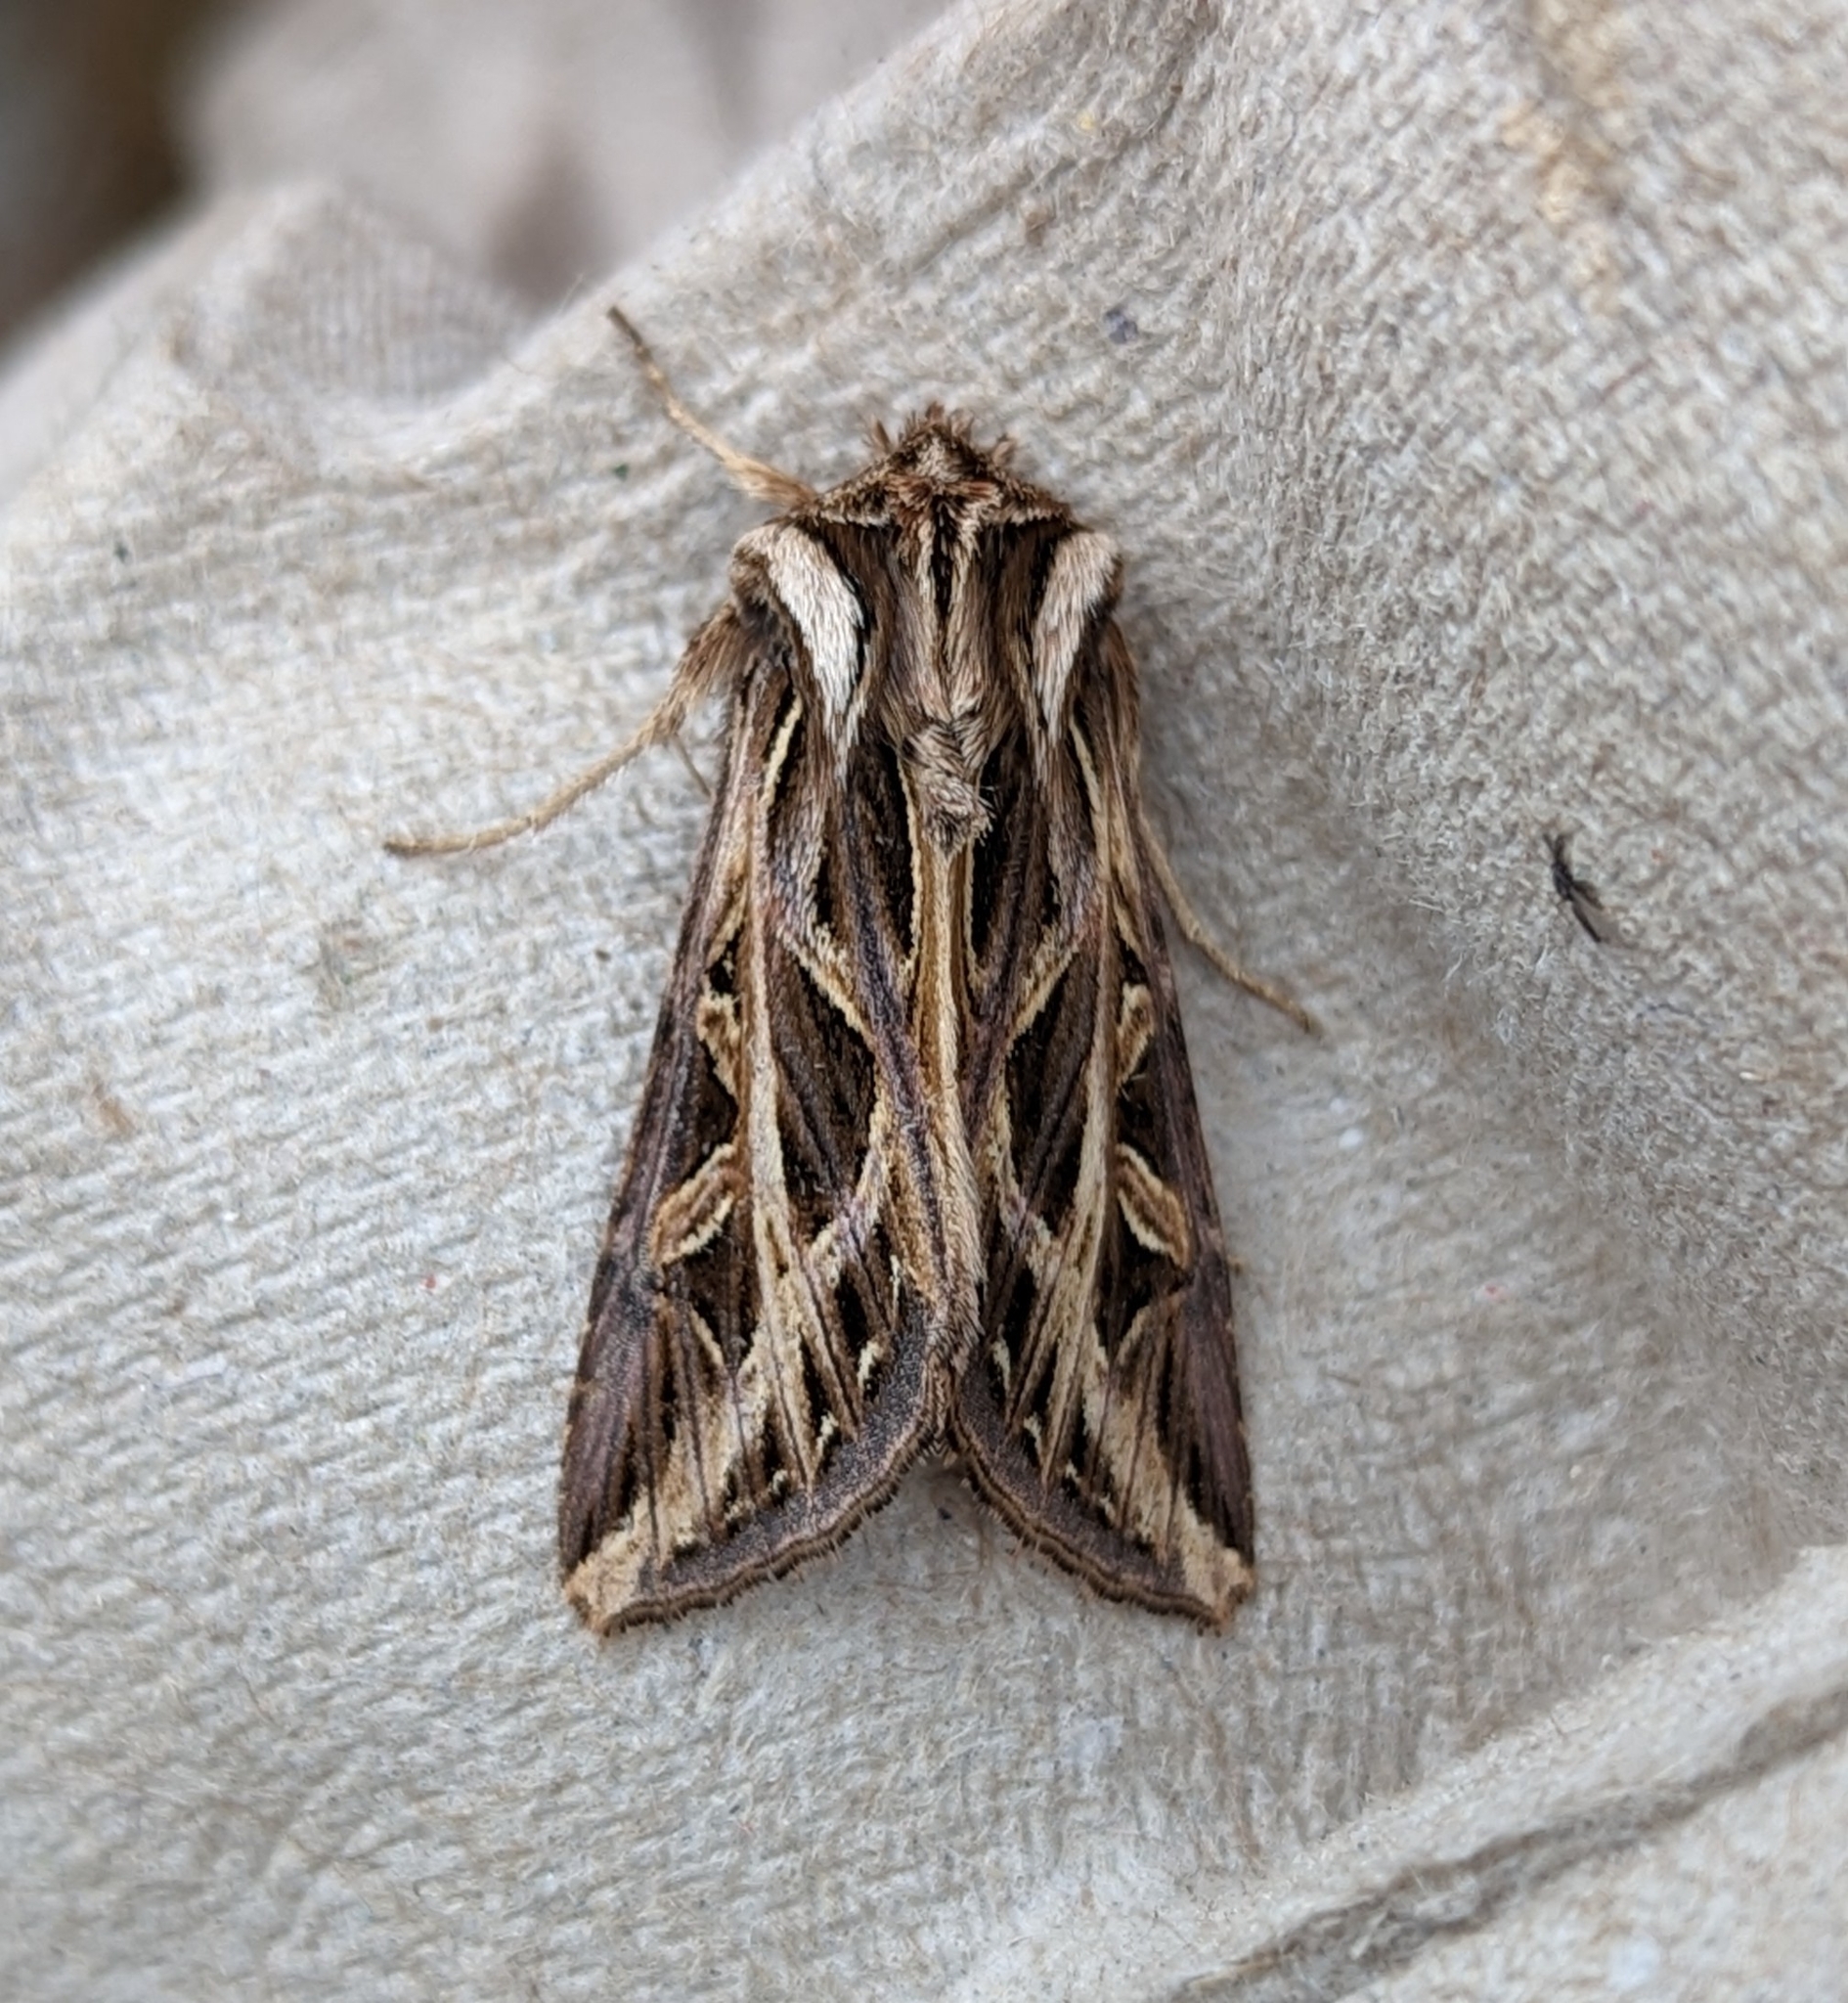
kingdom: Animalia
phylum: Arthropoda
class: Insecta
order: Lepidoptera
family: Noctuidae
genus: Dargida
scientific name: Dargida procinctus
